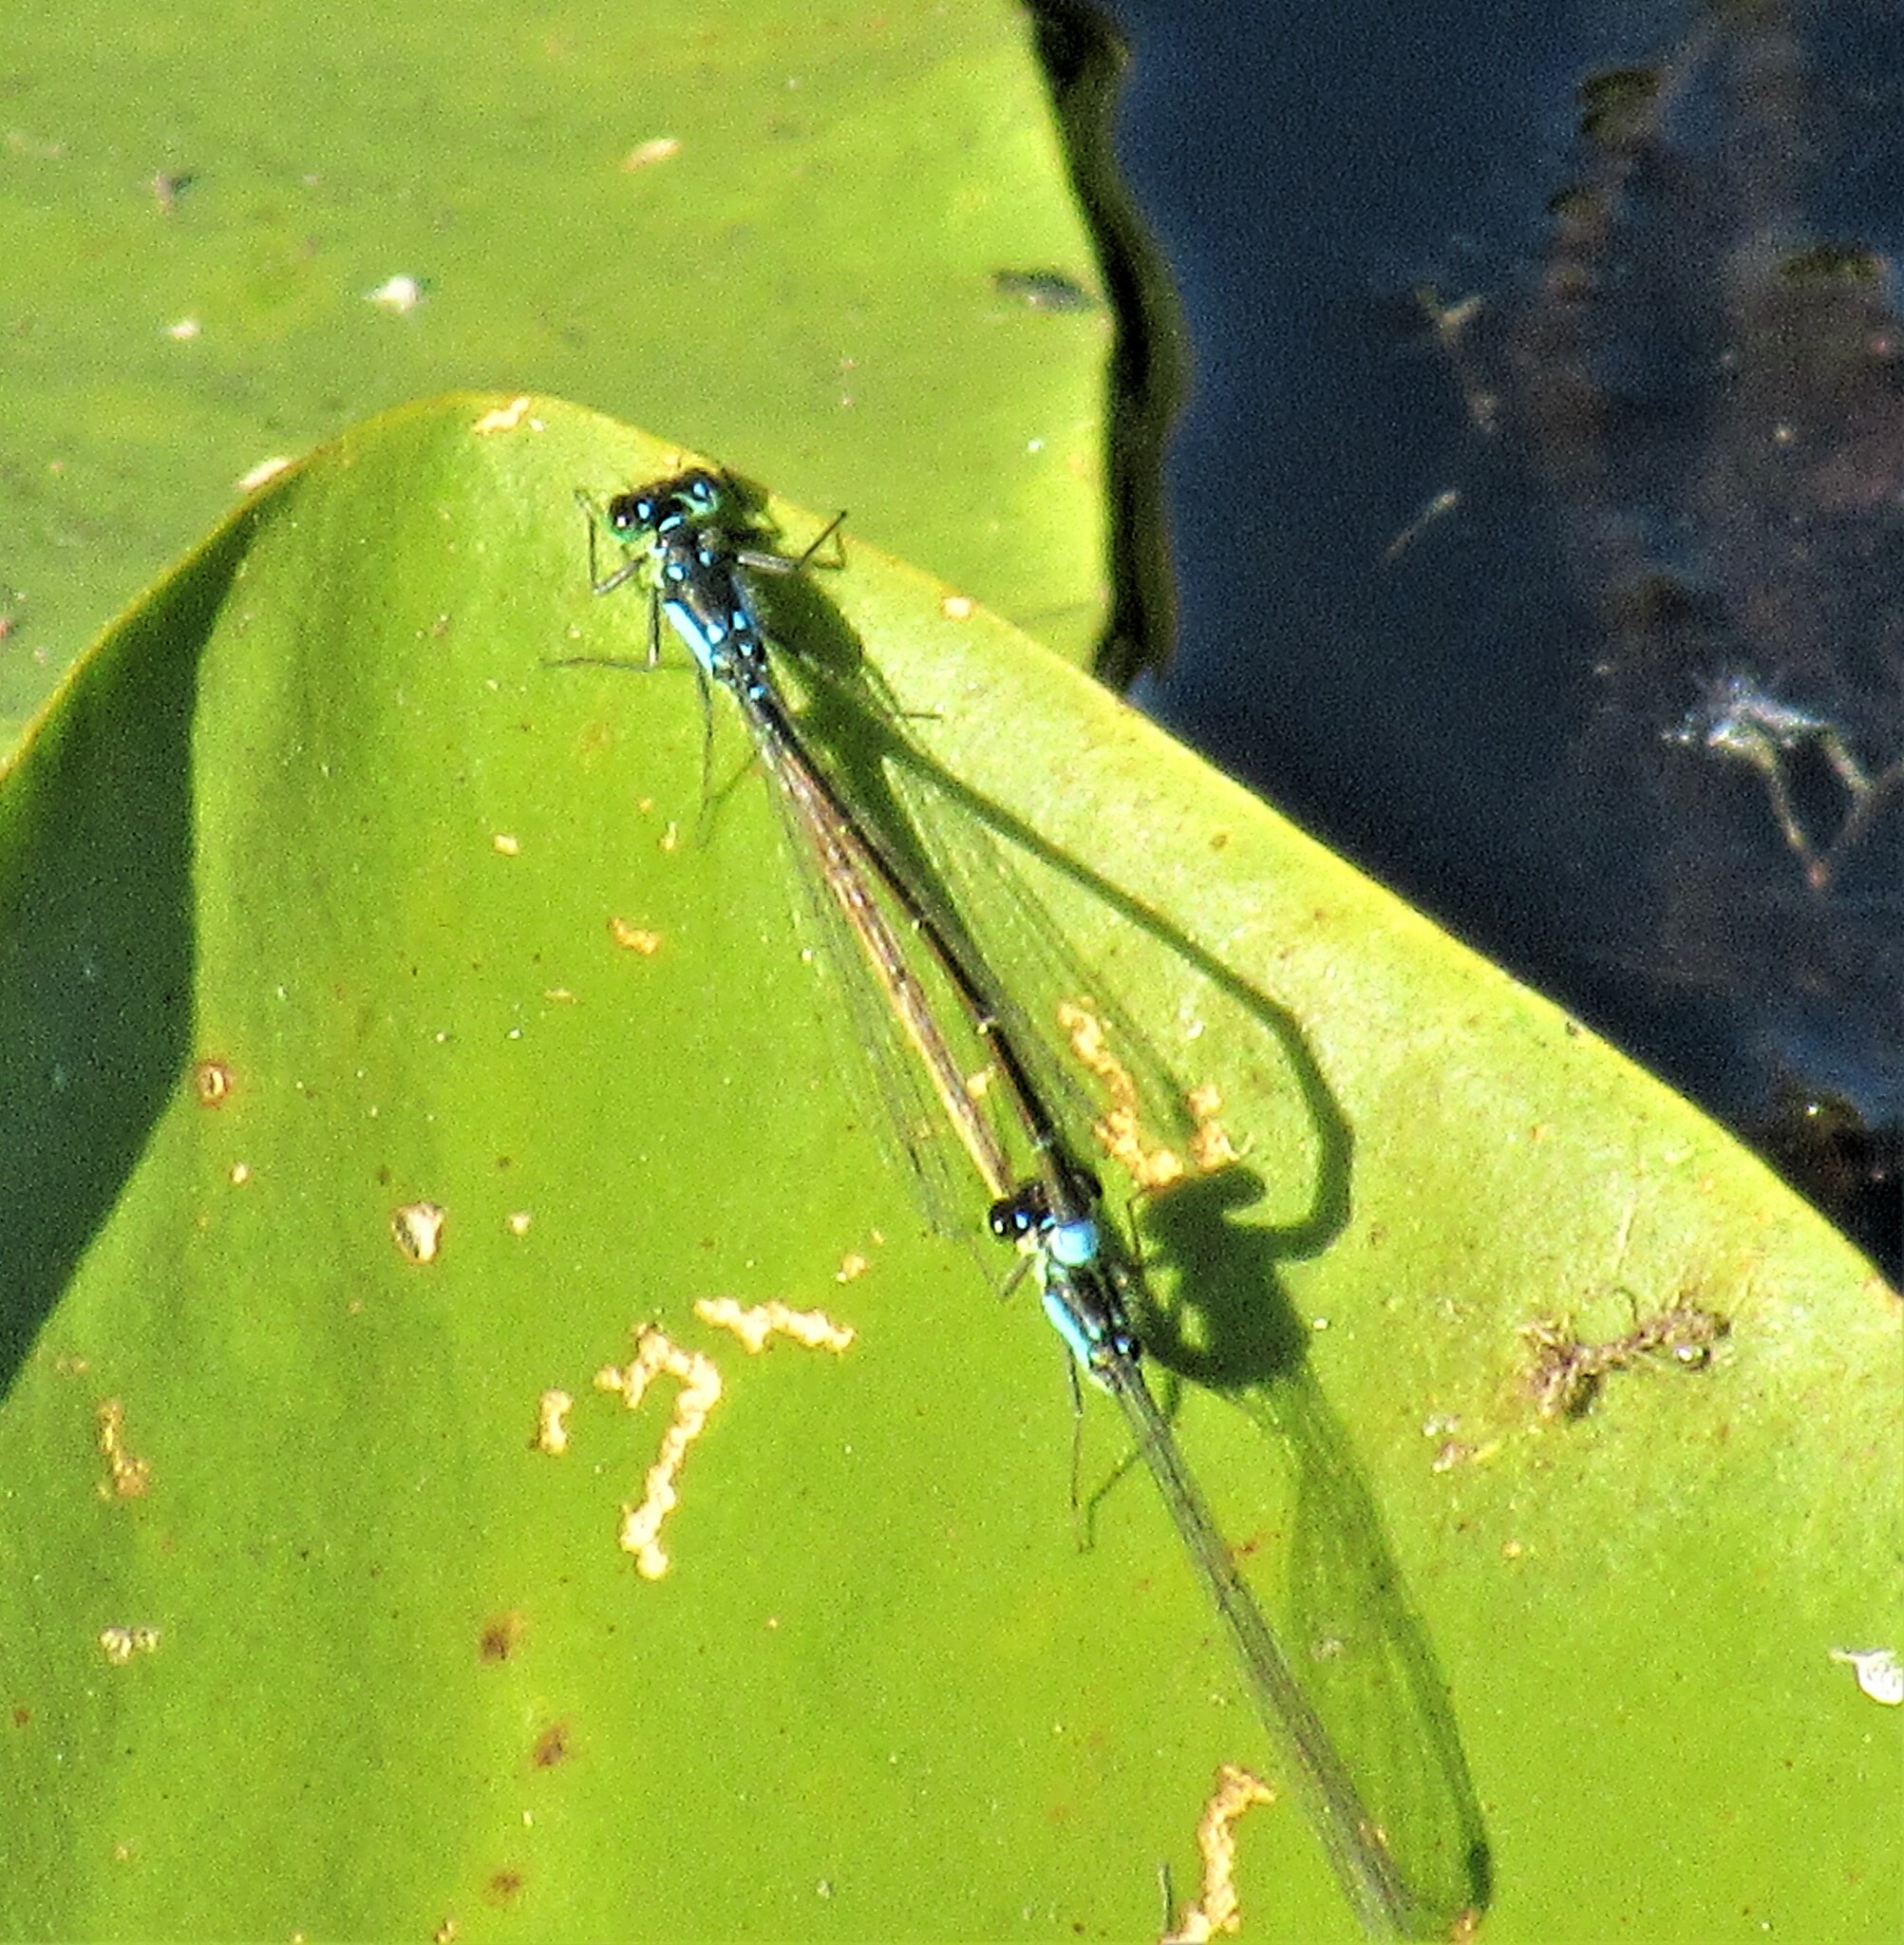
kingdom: Animalia
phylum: Arthropoda
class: Insecta
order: Odonata
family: Coenagrionidae
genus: Ischnura
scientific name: Ischnura cervula
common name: Pacific forktail
